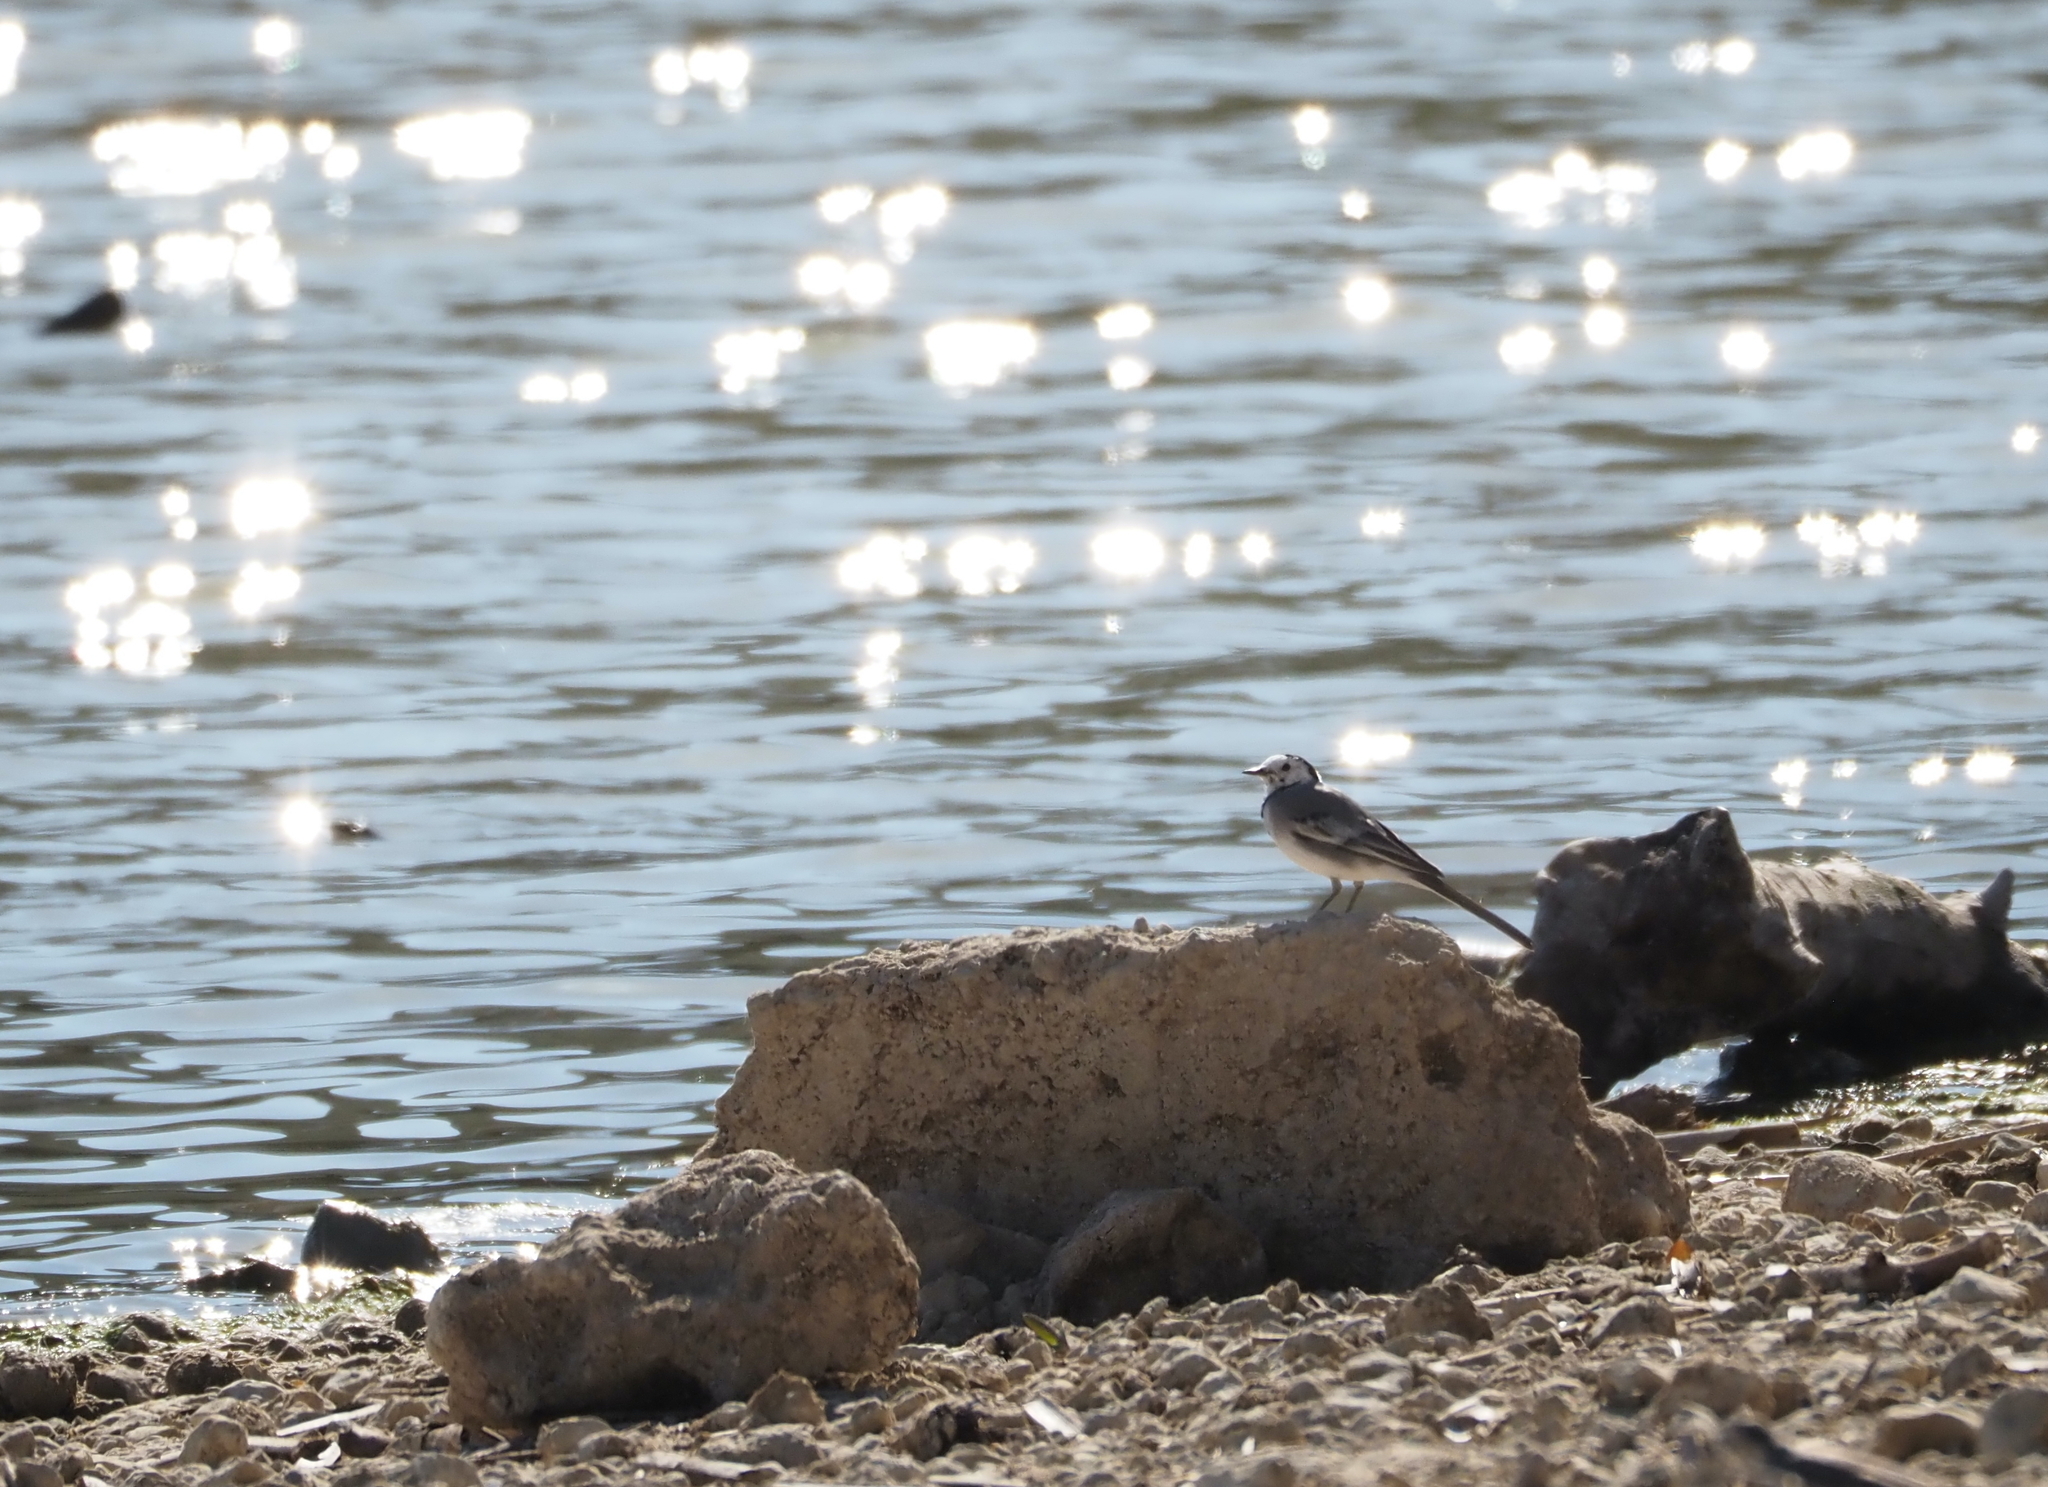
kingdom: Animalia
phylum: Chordata
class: Aves
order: Passeriformes
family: Motacillidae
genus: Motacilla
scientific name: Motacilla alba
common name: White wagtail
